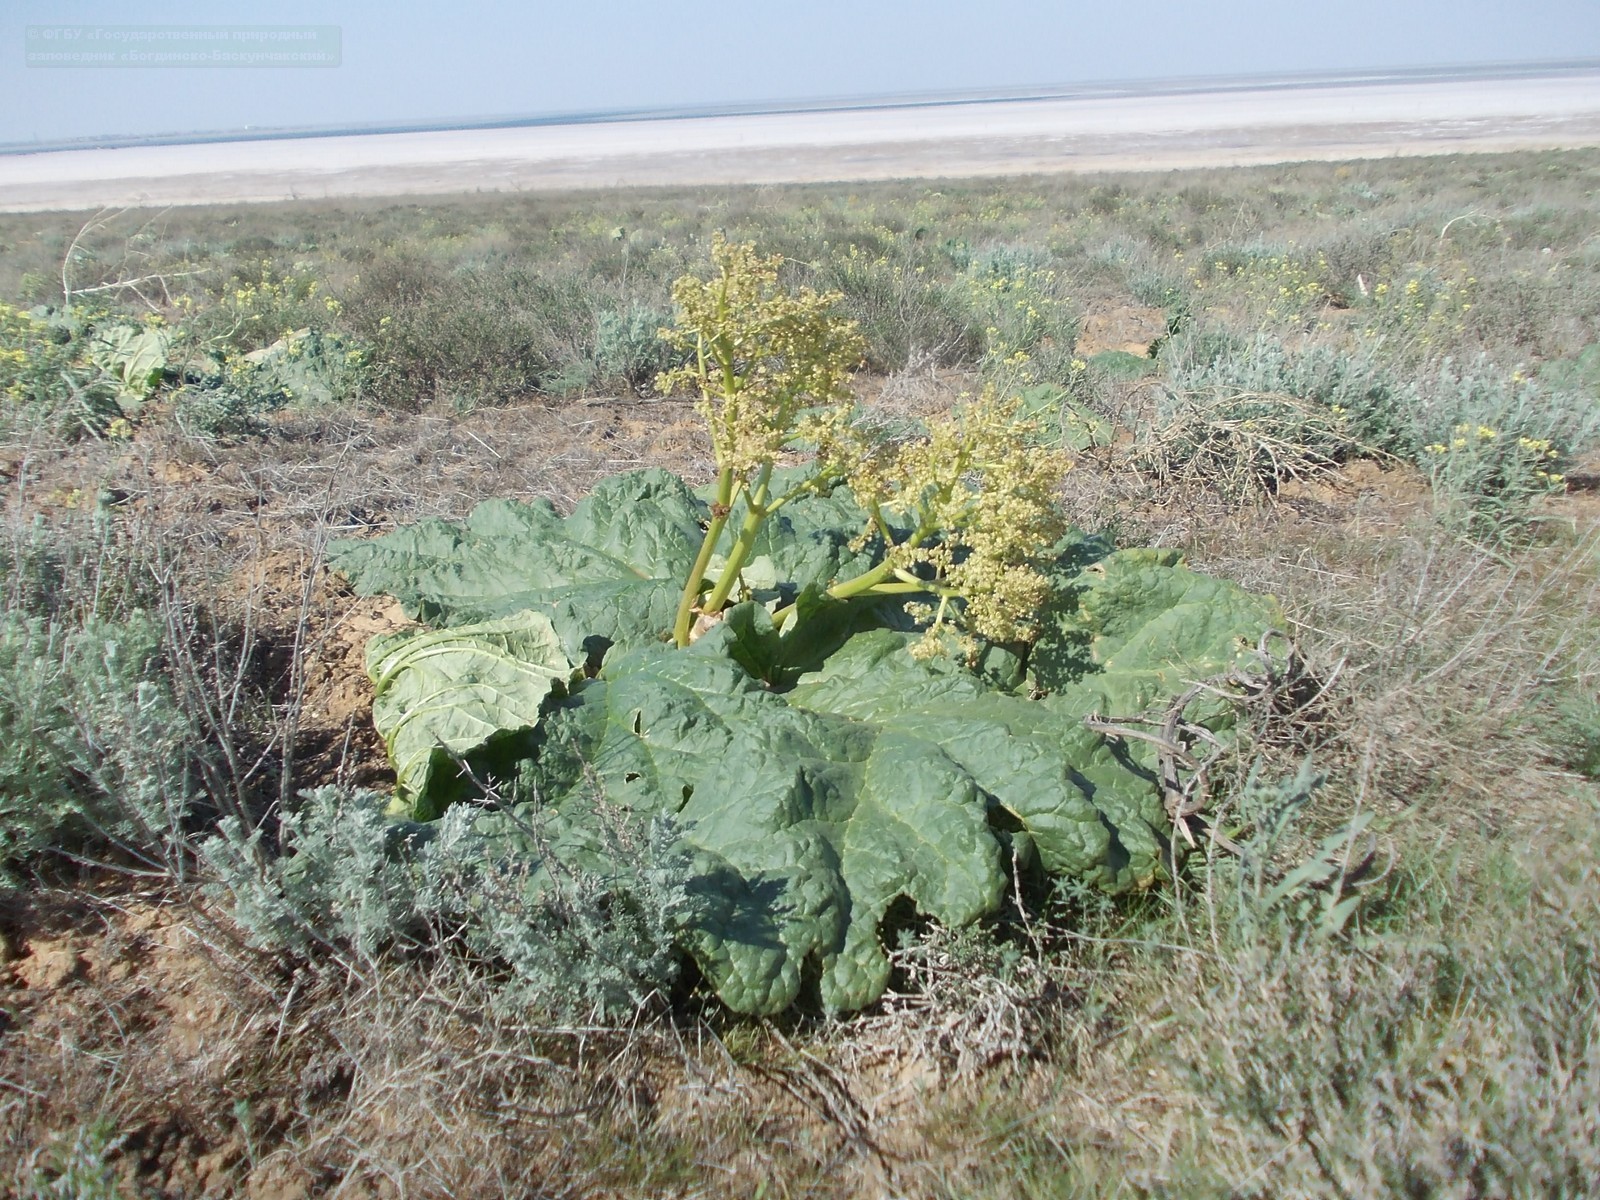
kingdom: Plantae
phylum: Tracheophyta
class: Magnoliopsida
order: Caryophyllales
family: Polygonaceae
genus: Rheum
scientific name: Rheum tataricum
